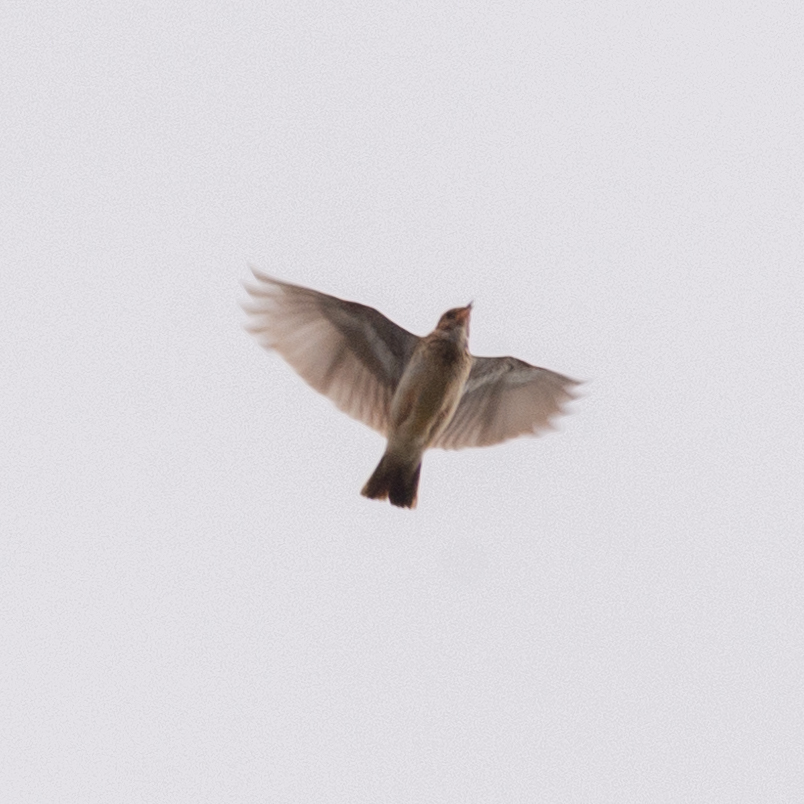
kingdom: Animalia
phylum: Chordata
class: Aves
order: Passeriformes
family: Alaudidae
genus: Lullula
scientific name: Lullula arborea
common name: Woodlark
